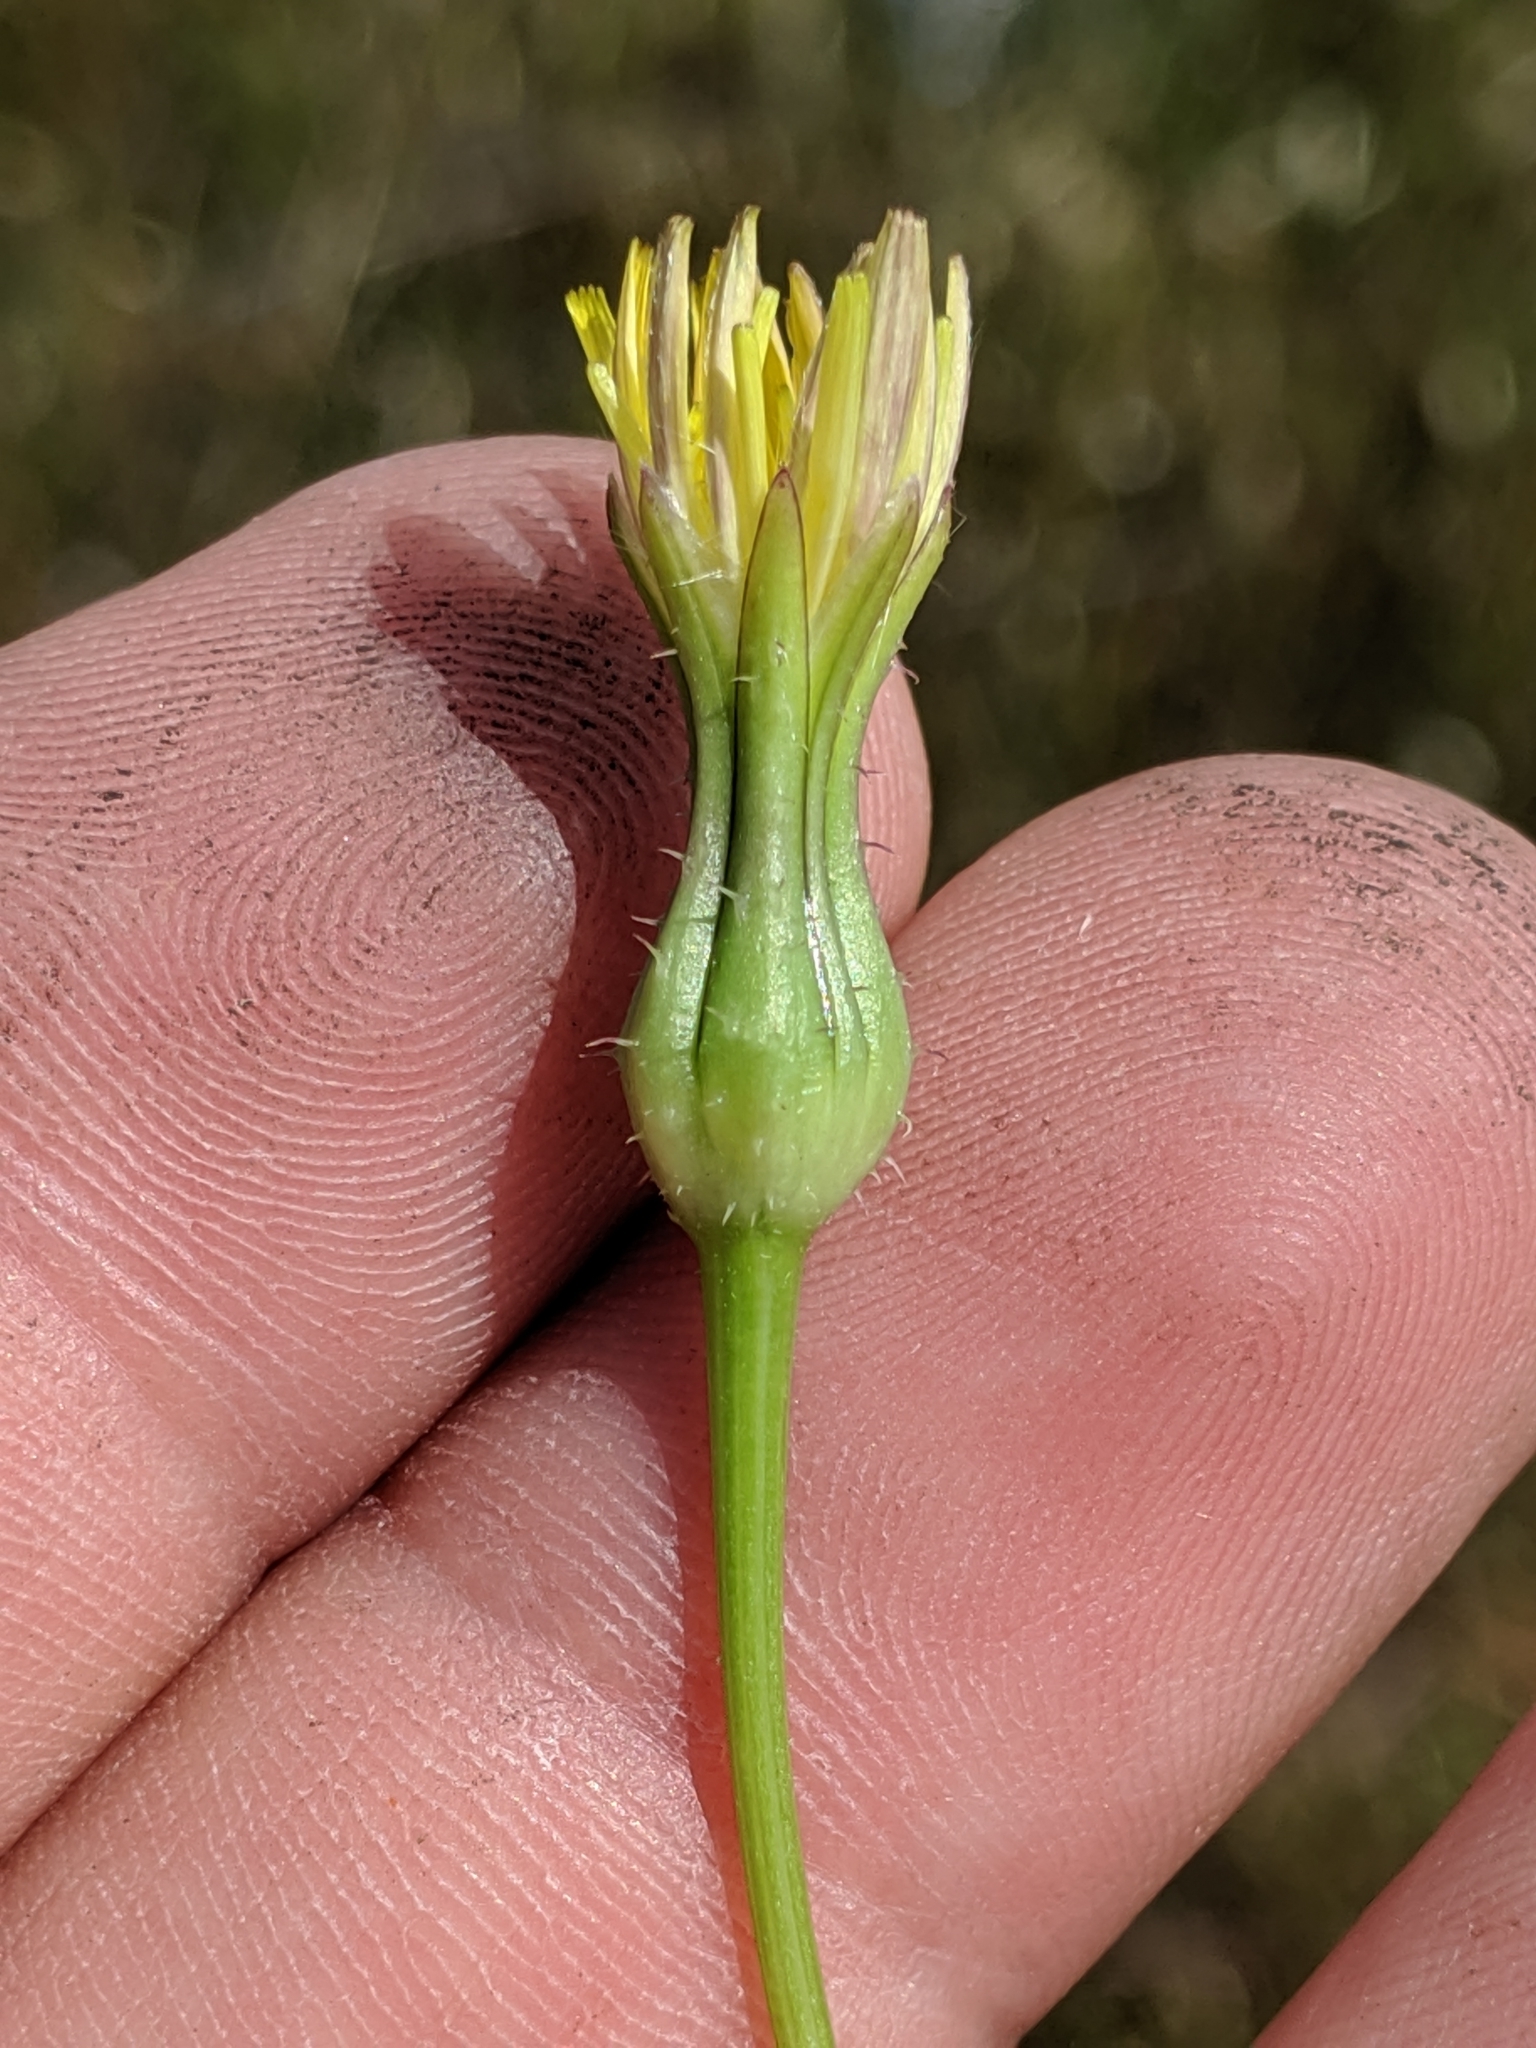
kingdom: Plantae
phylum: Tracheophyta
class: Magnoliopsida
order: Asterales
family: Asteraceae
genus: Urospermum
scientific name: Urospermum picroides
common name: False hawkbit
